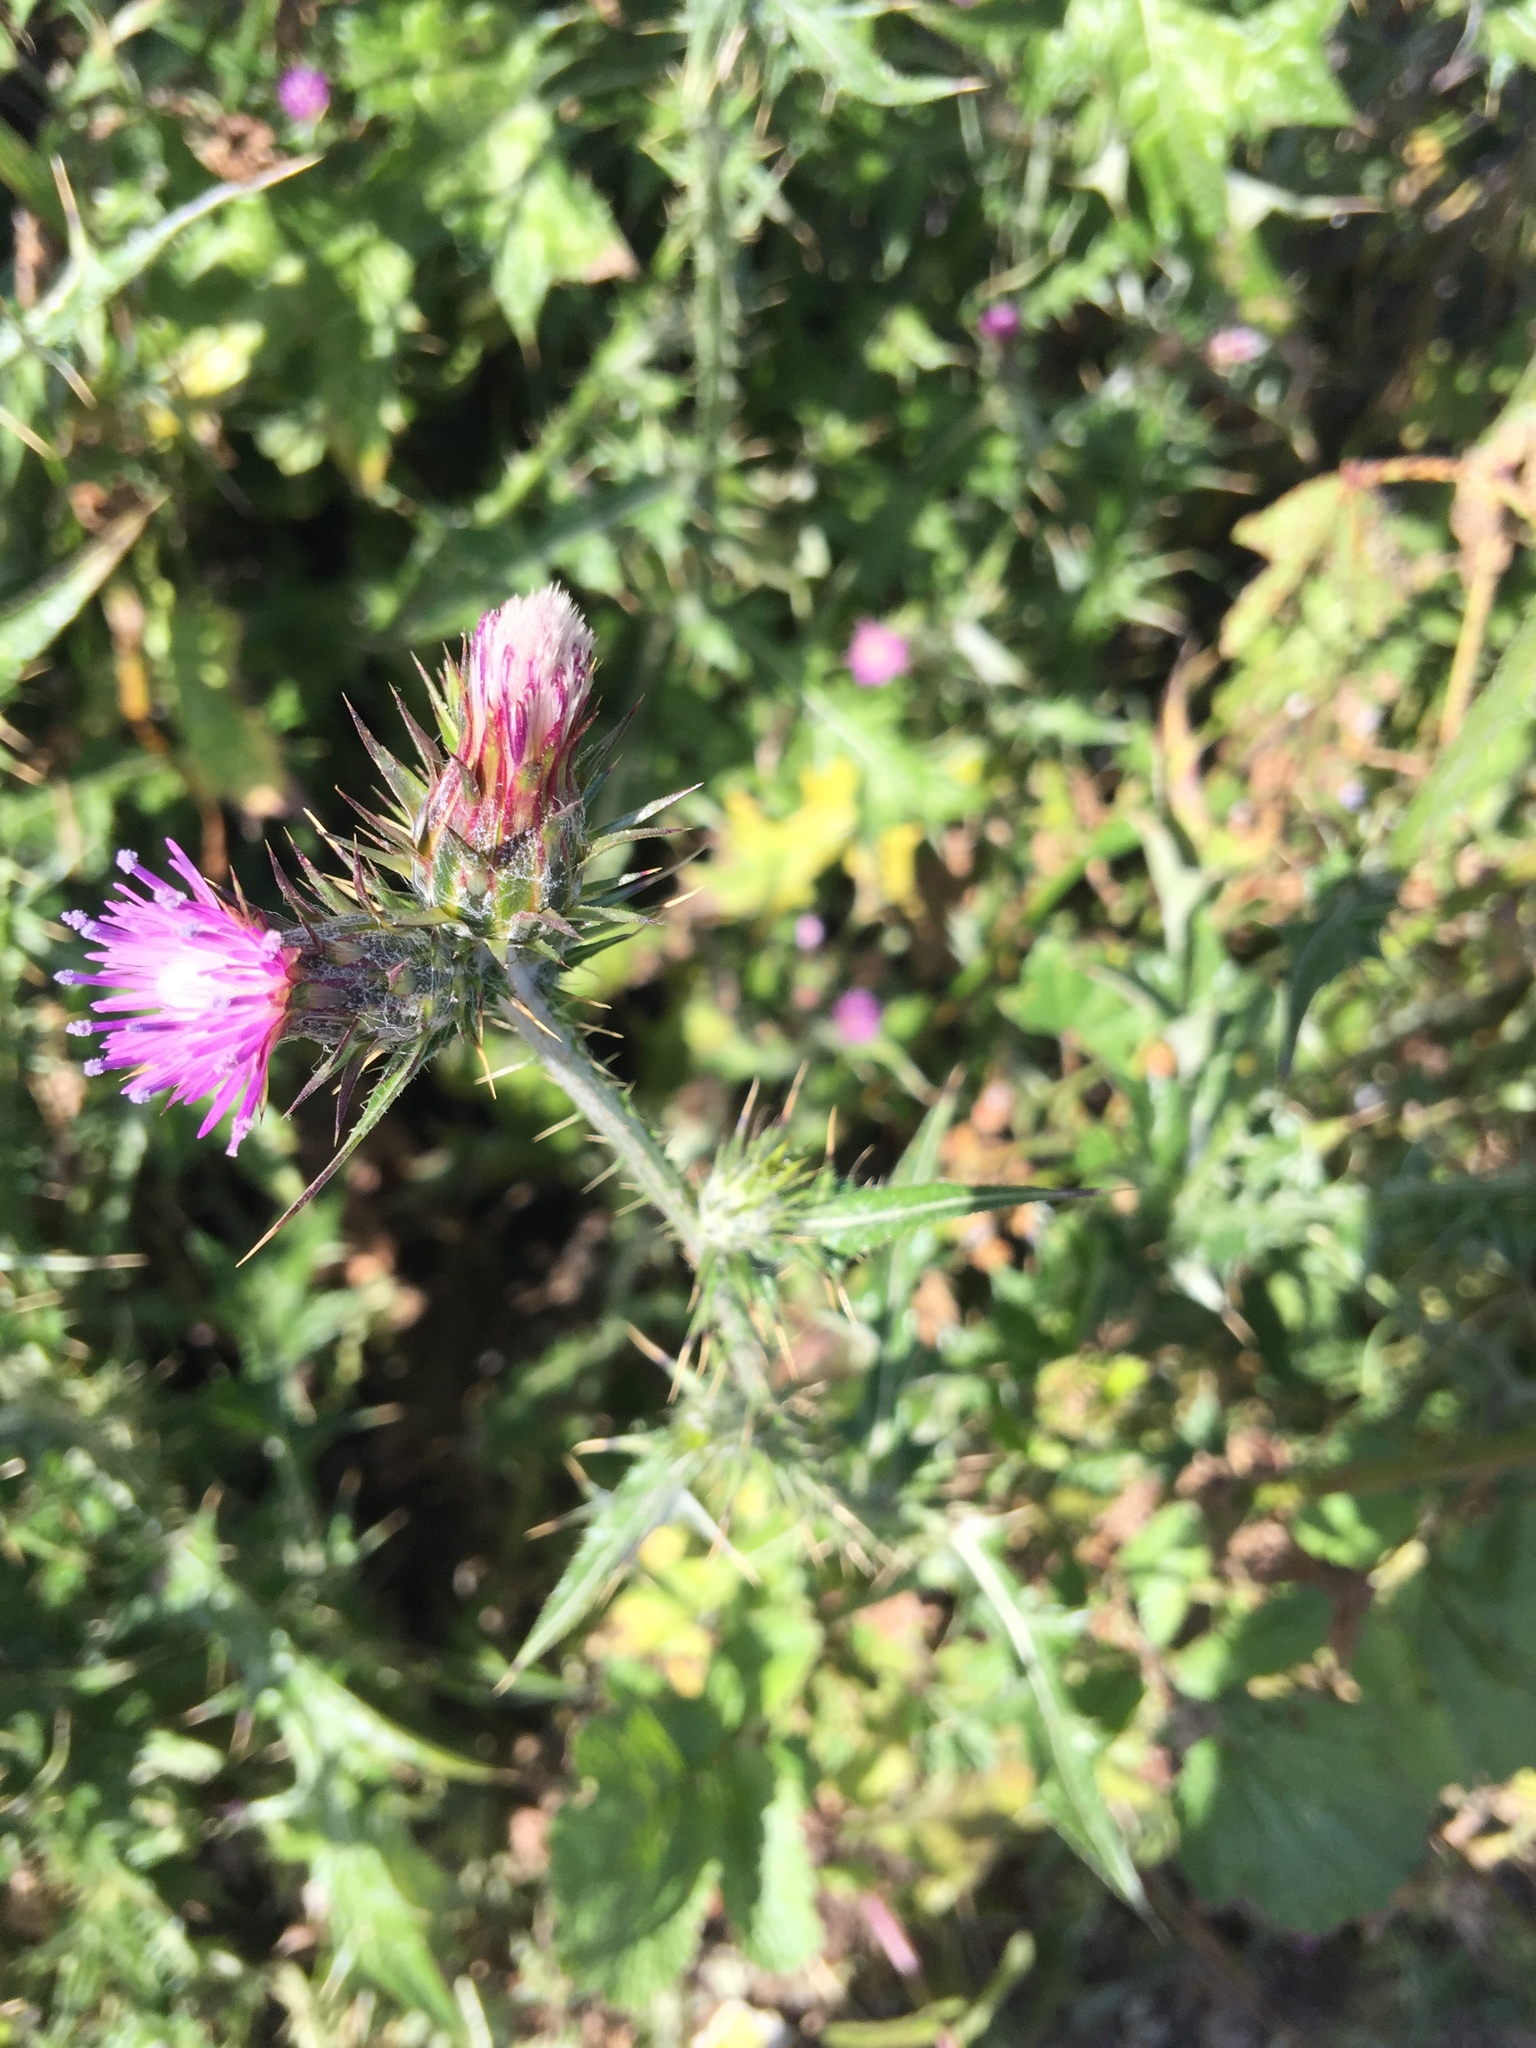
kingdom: Plantae
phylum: Tracheophyta
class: Magnoliopsida
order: Asterales
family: Asteraceae
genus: Carduus
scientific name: Carduus pycnocephalus
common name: Plymouth thistle
